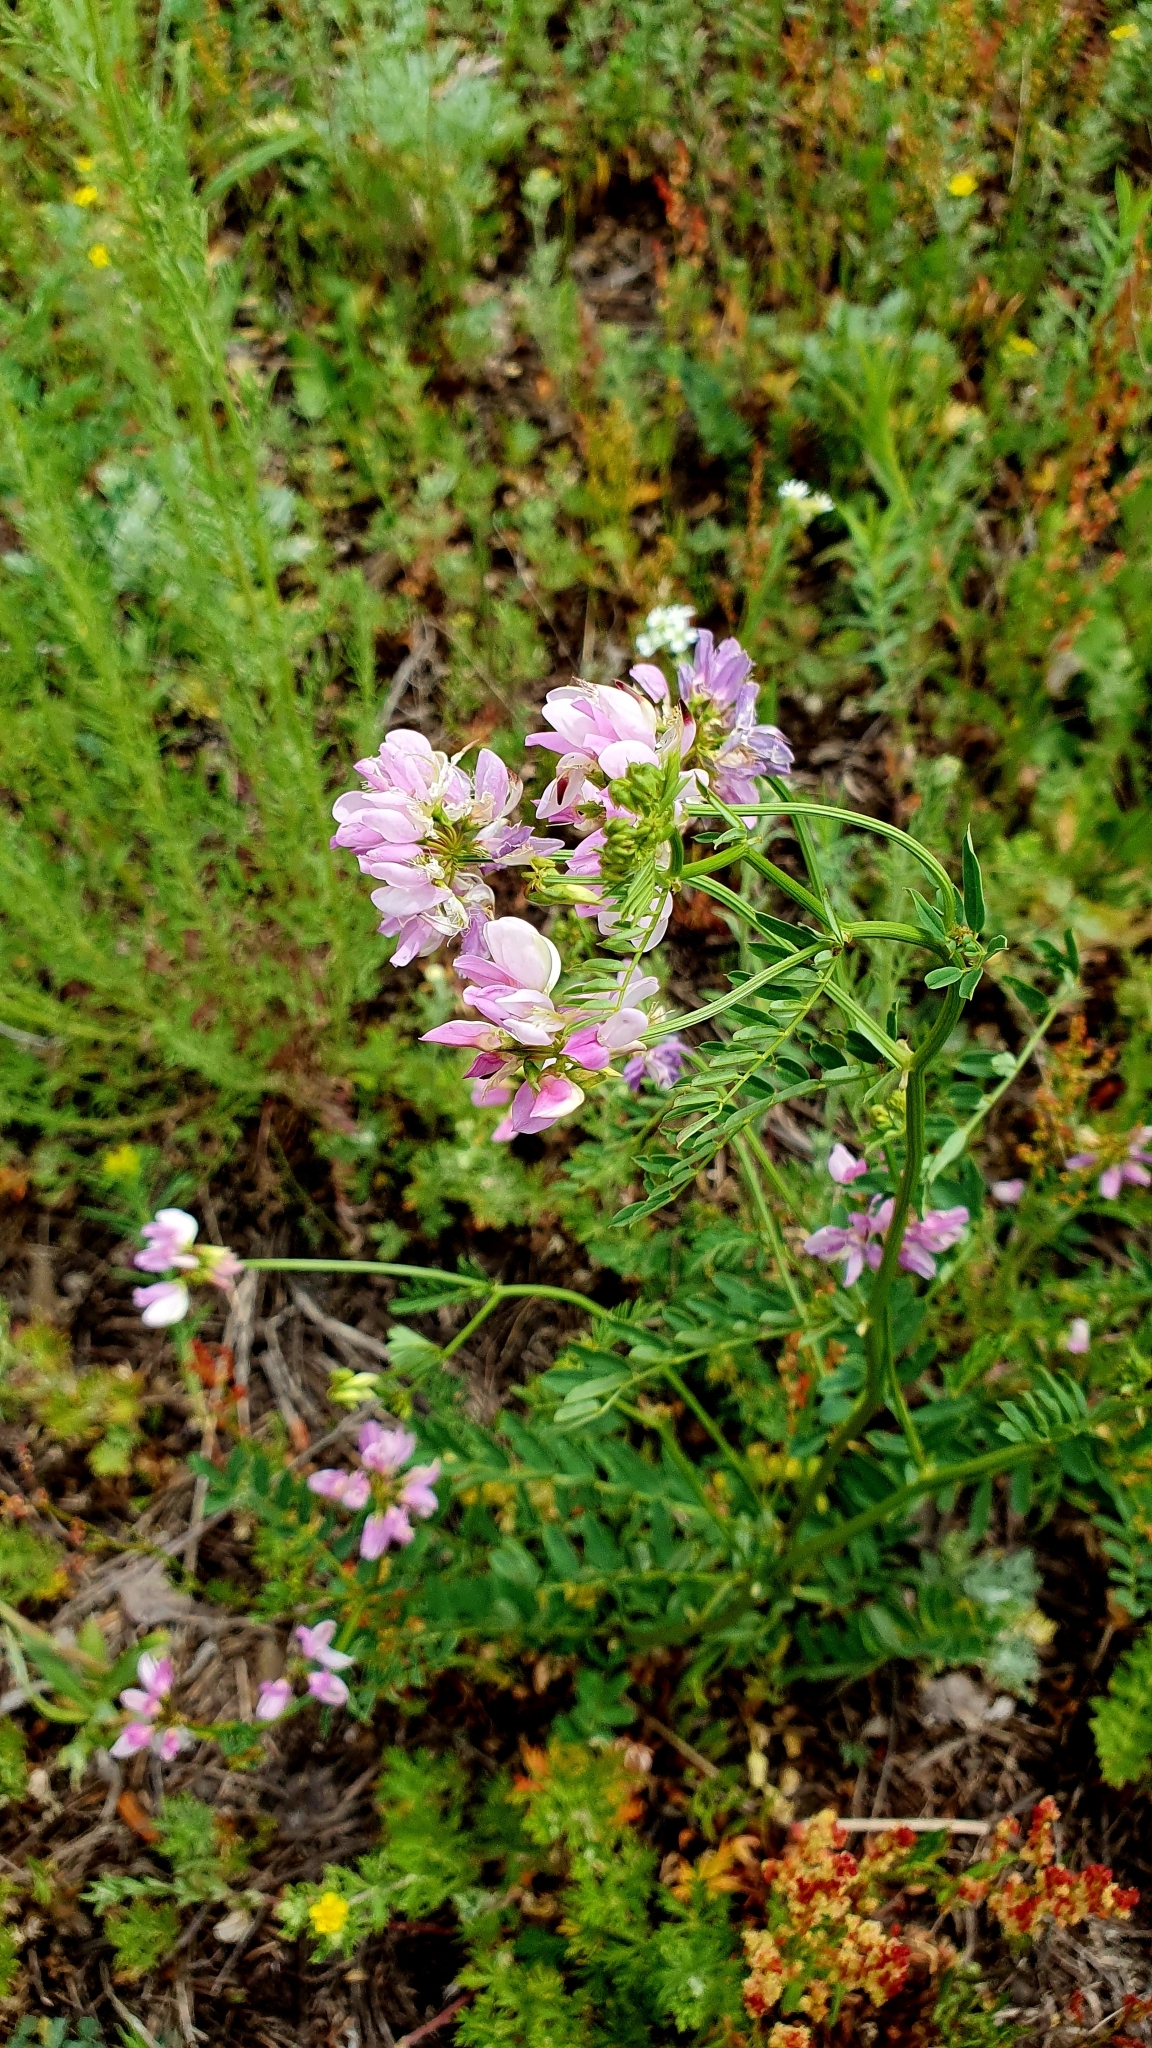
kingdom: Plantae
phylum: Tracheophyta
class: Magnoliopsida
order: Fabales
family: Fabaceae
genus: Coronilla
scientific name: Coronilla varia
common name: Crownvetch
